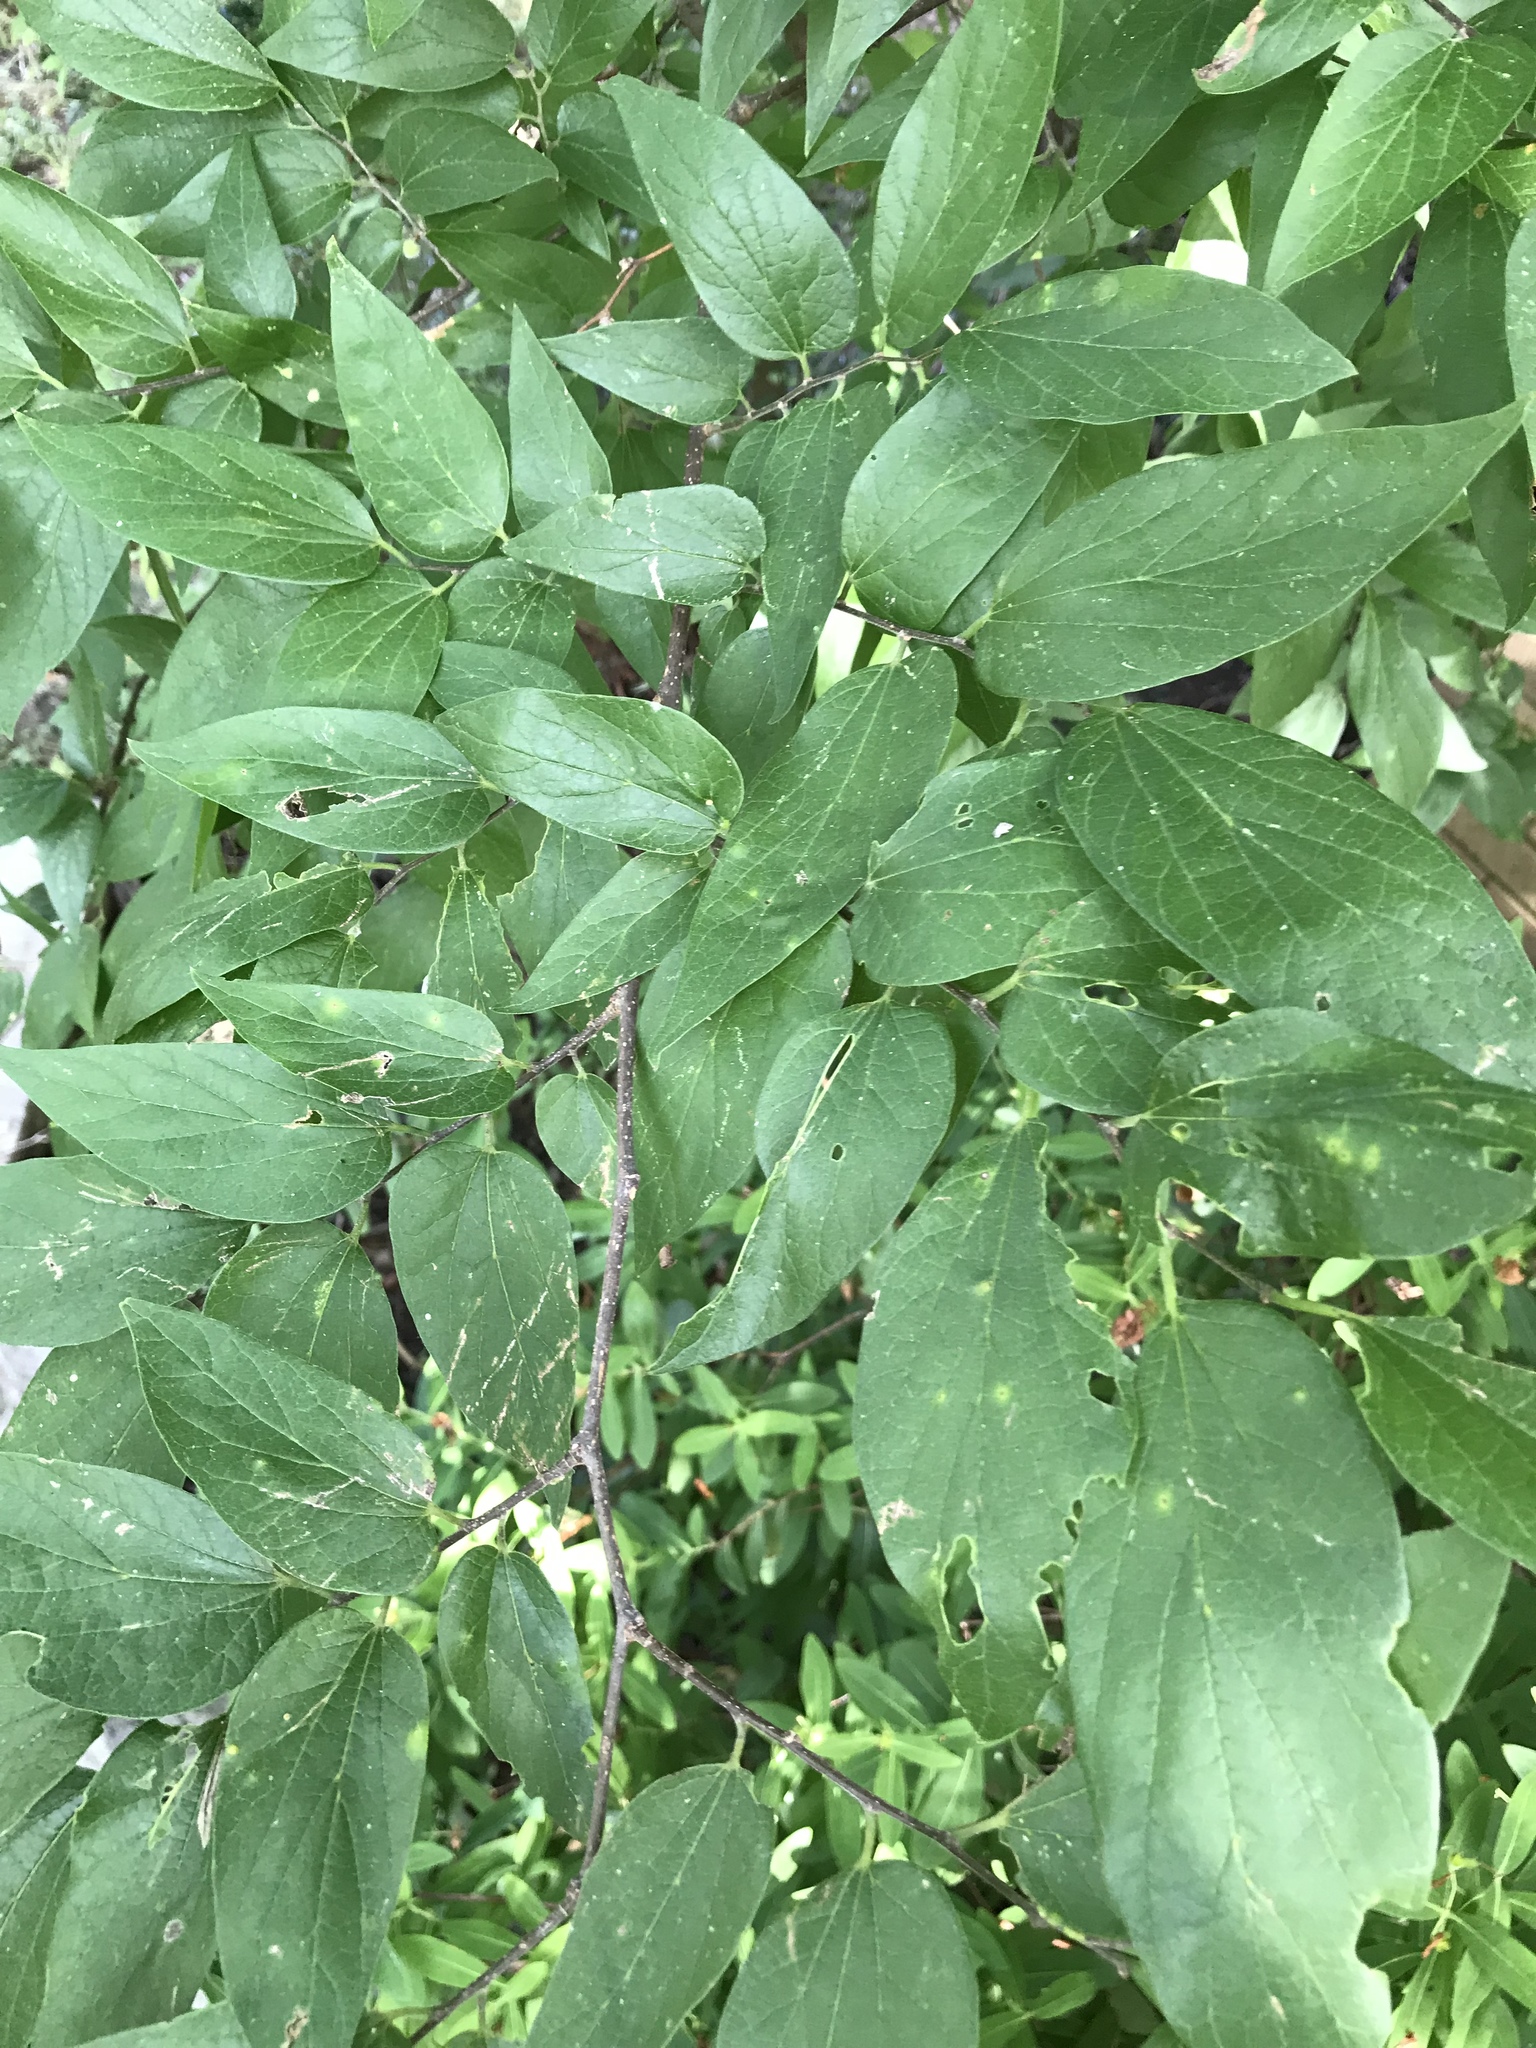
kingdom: Plantae
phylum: Tracheophyta
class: Magnoliopsida
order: Rosales
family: Cannabaceae
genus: Celtis
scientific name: Celtis laevigata
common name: Sugarberry
